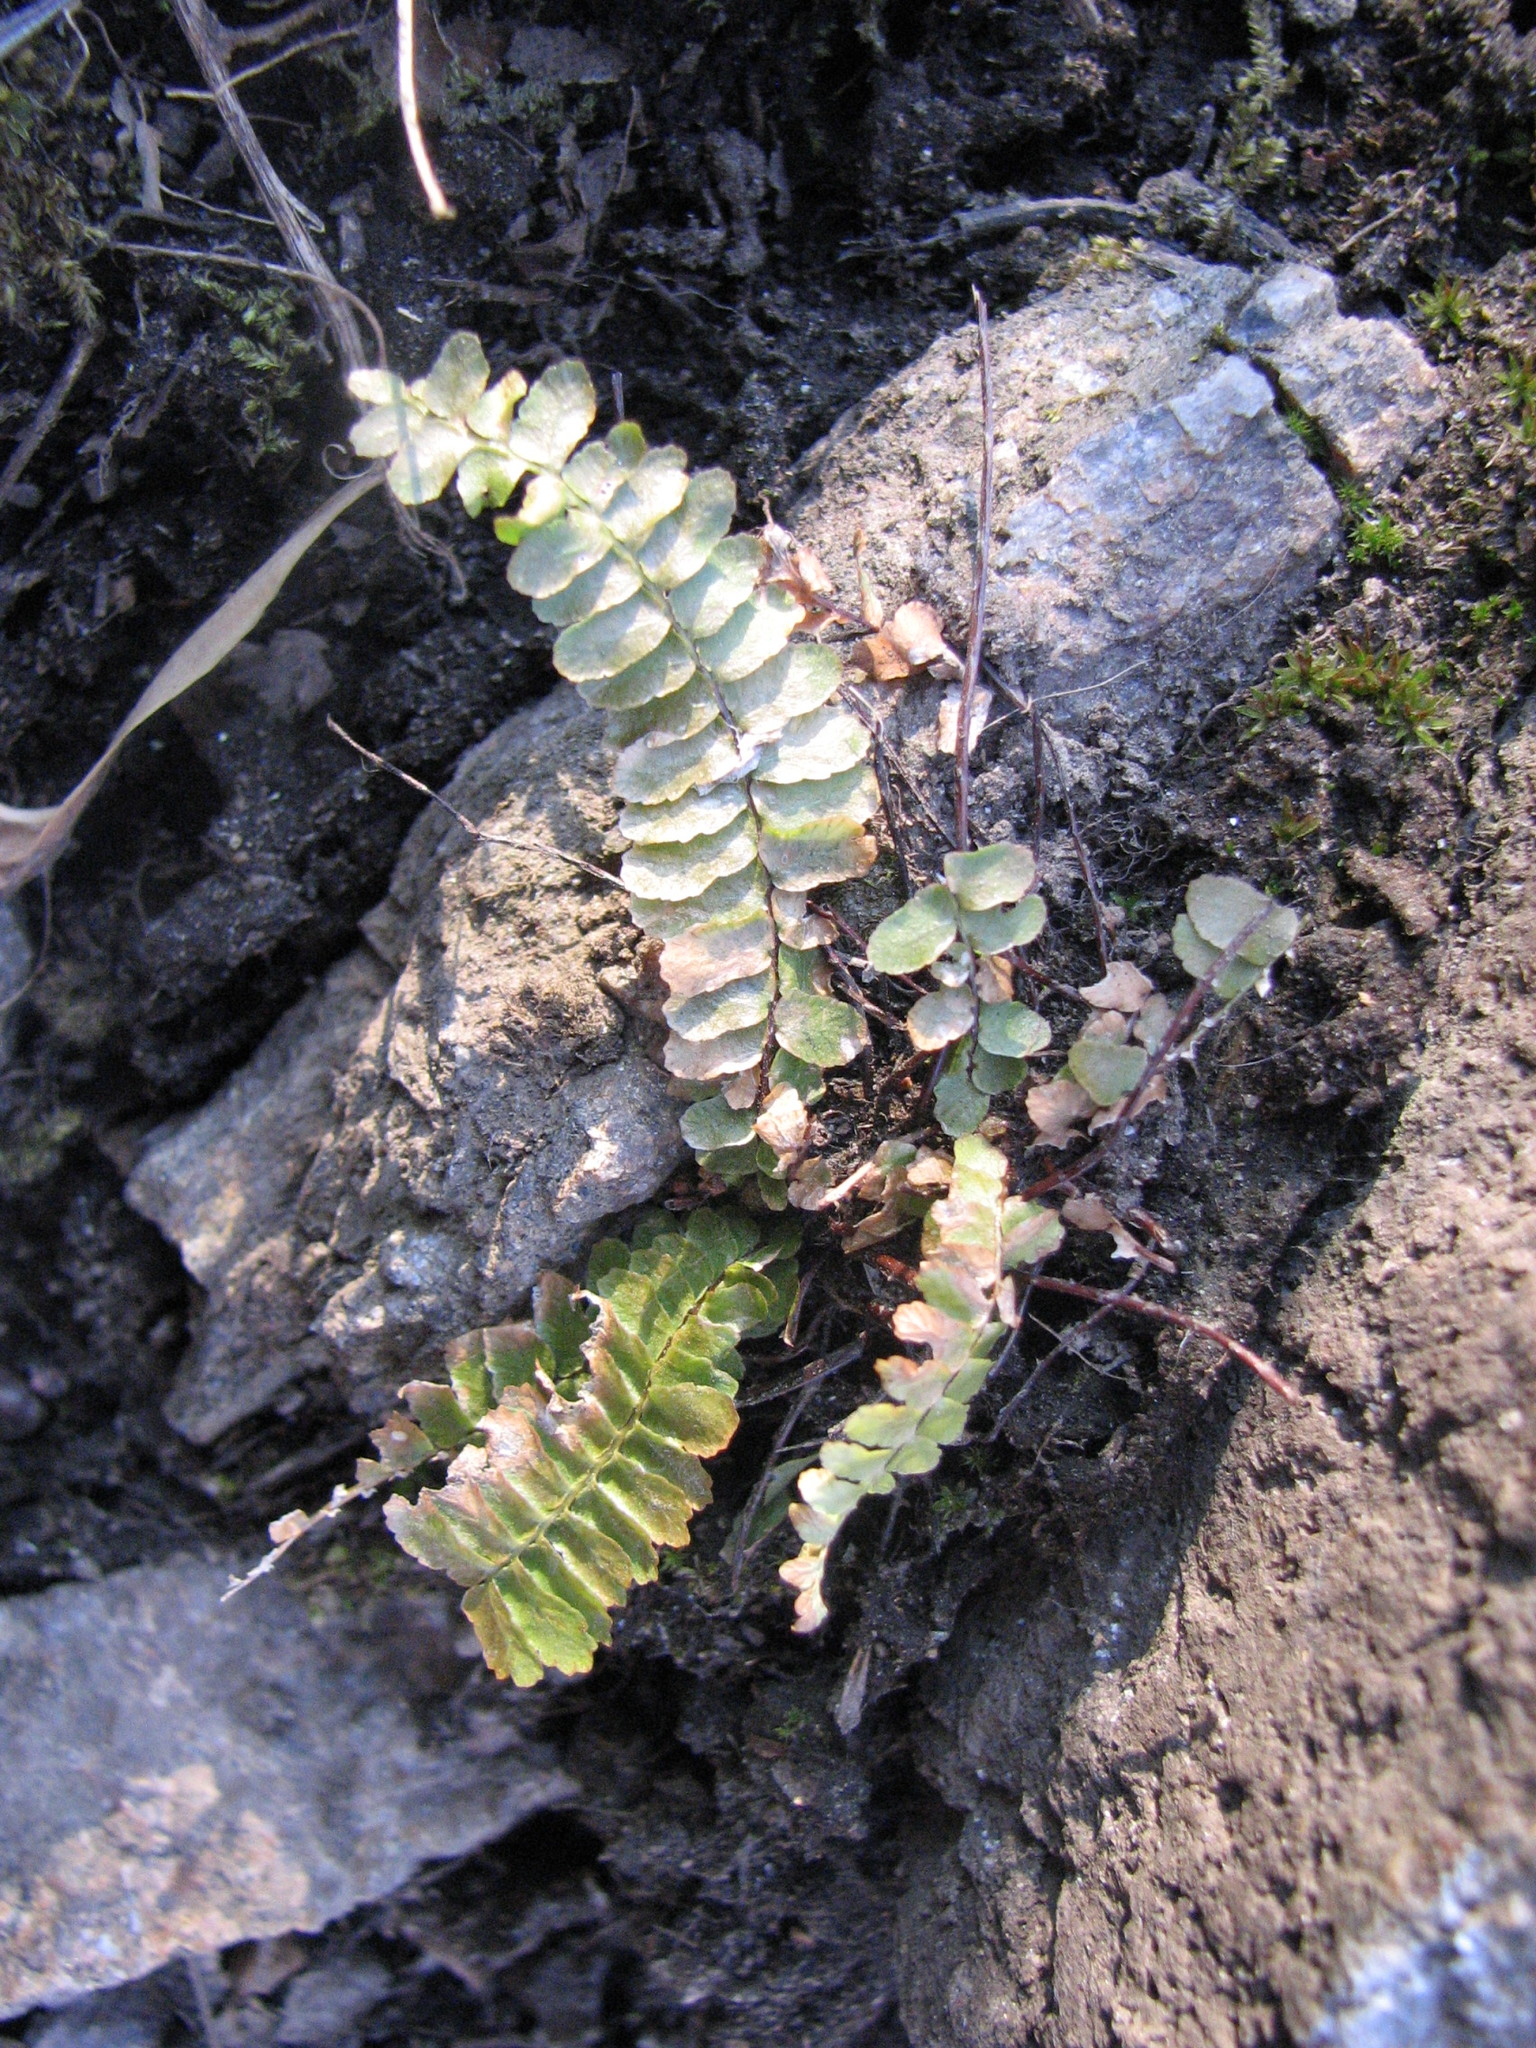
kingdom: Plantae
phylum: Tracheophyta
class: Polypodiopsida
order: Polypodiales
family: Aspleniaceae
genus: Asplenium
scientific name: Asplenium platyneuron
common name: Ebony spleenwort
